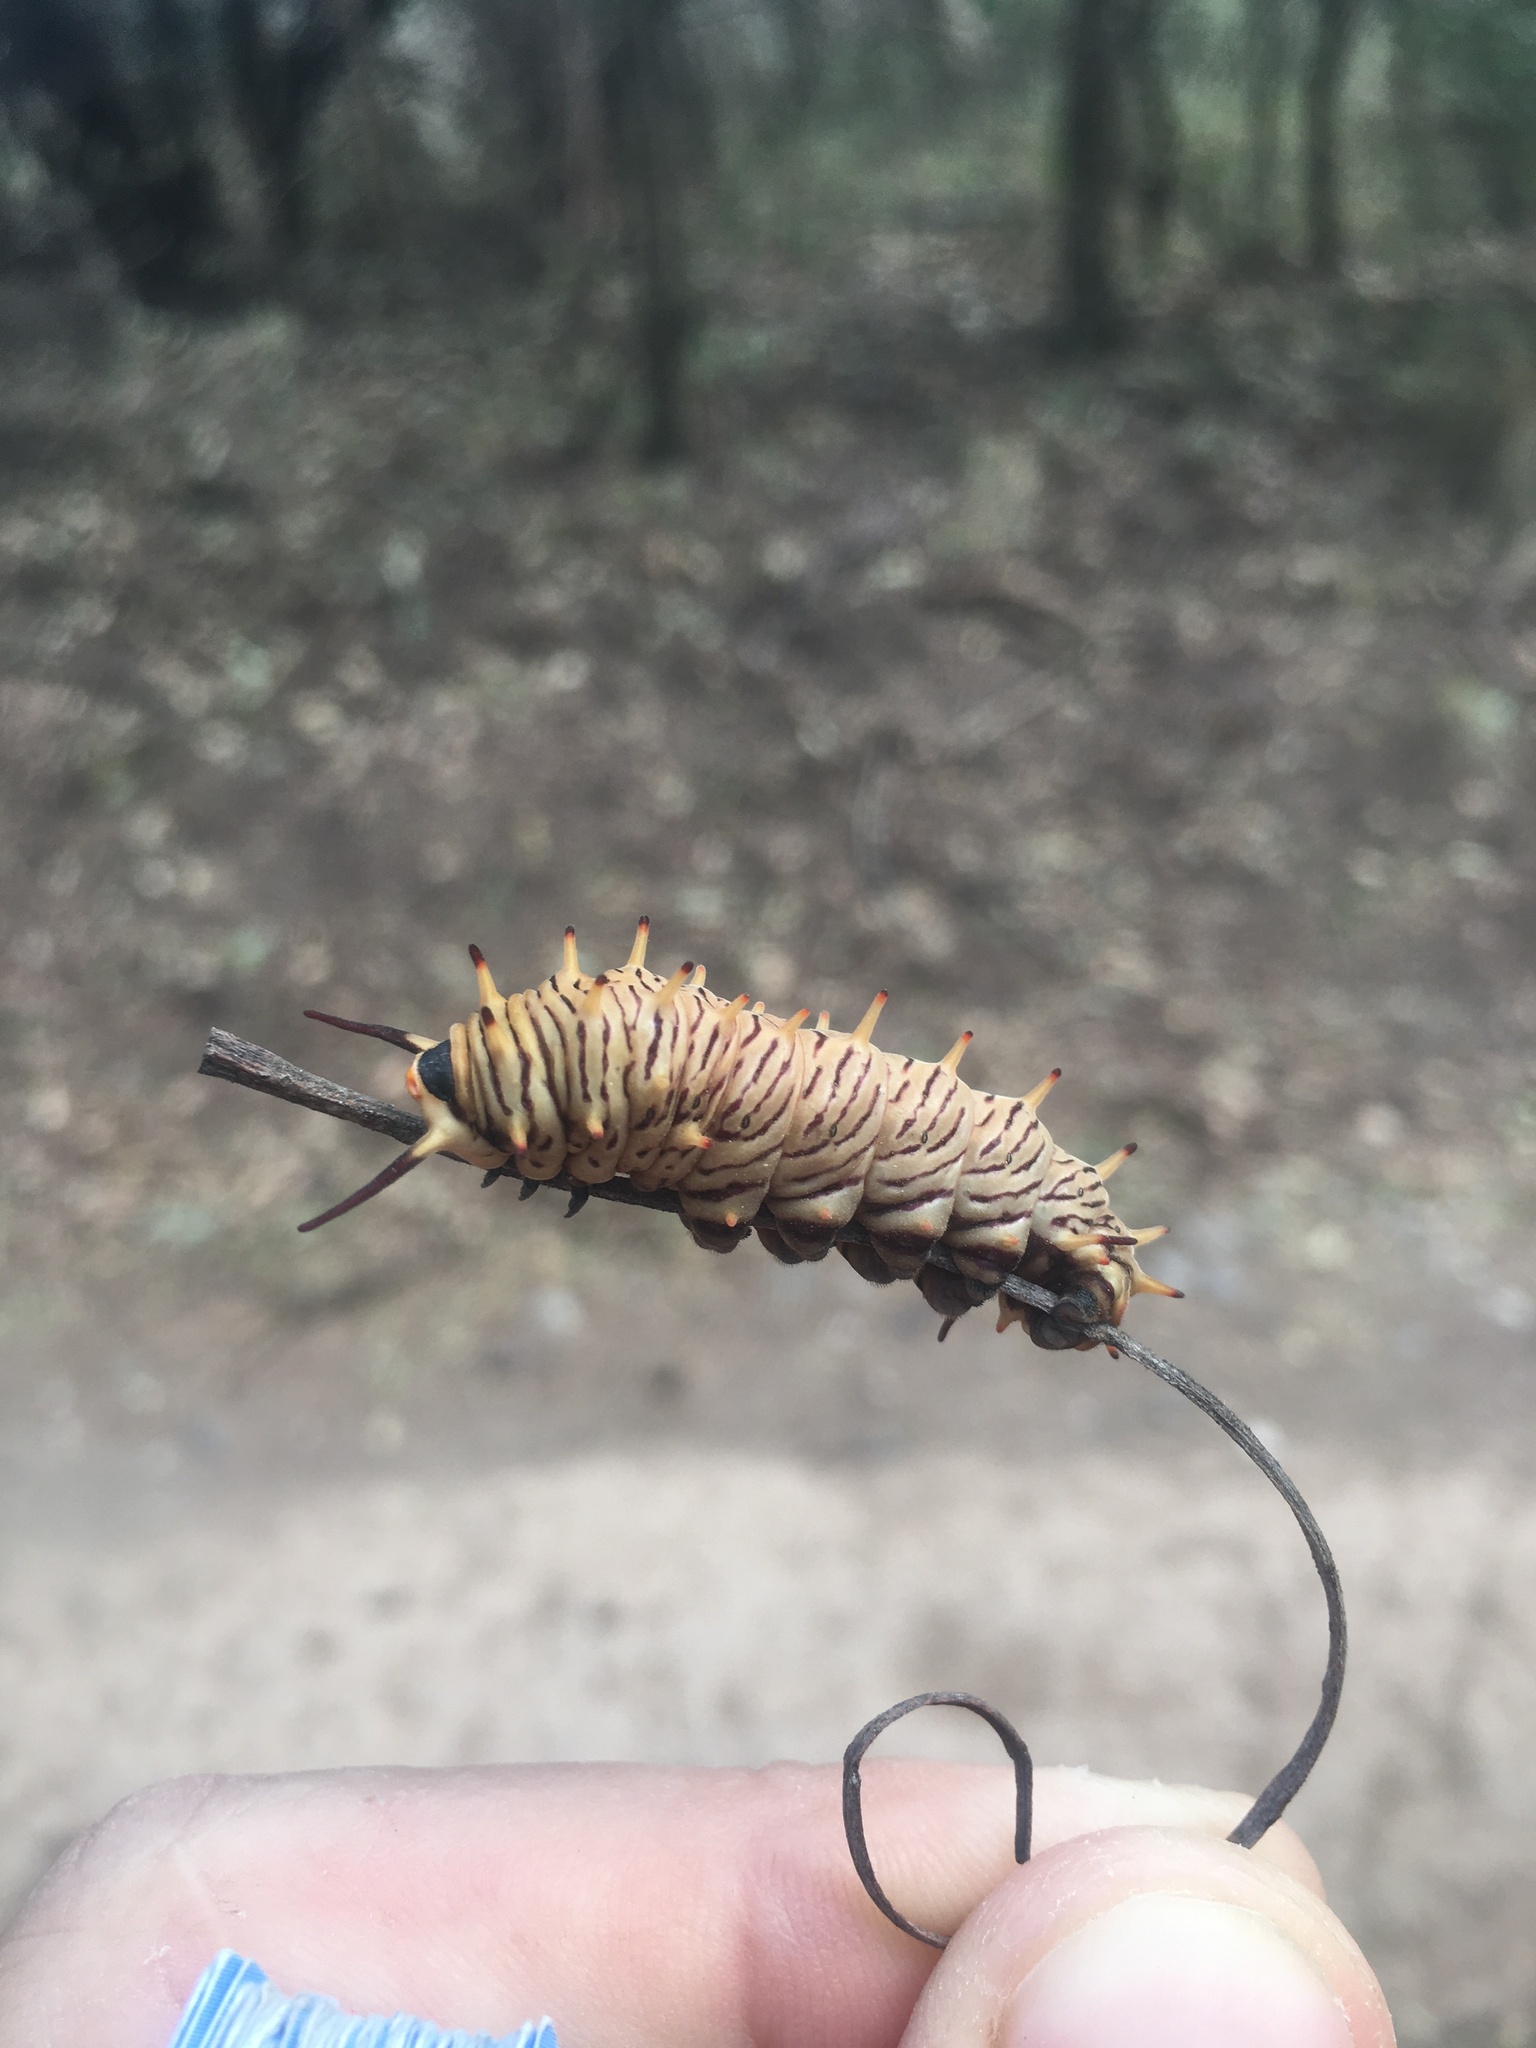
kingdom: Animalia
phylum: Arthropoda
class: Insecta
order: Lepidoptera
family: Papilionidae
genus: Battus
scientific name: Battus polydamas
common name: Polydamas swallowtail
